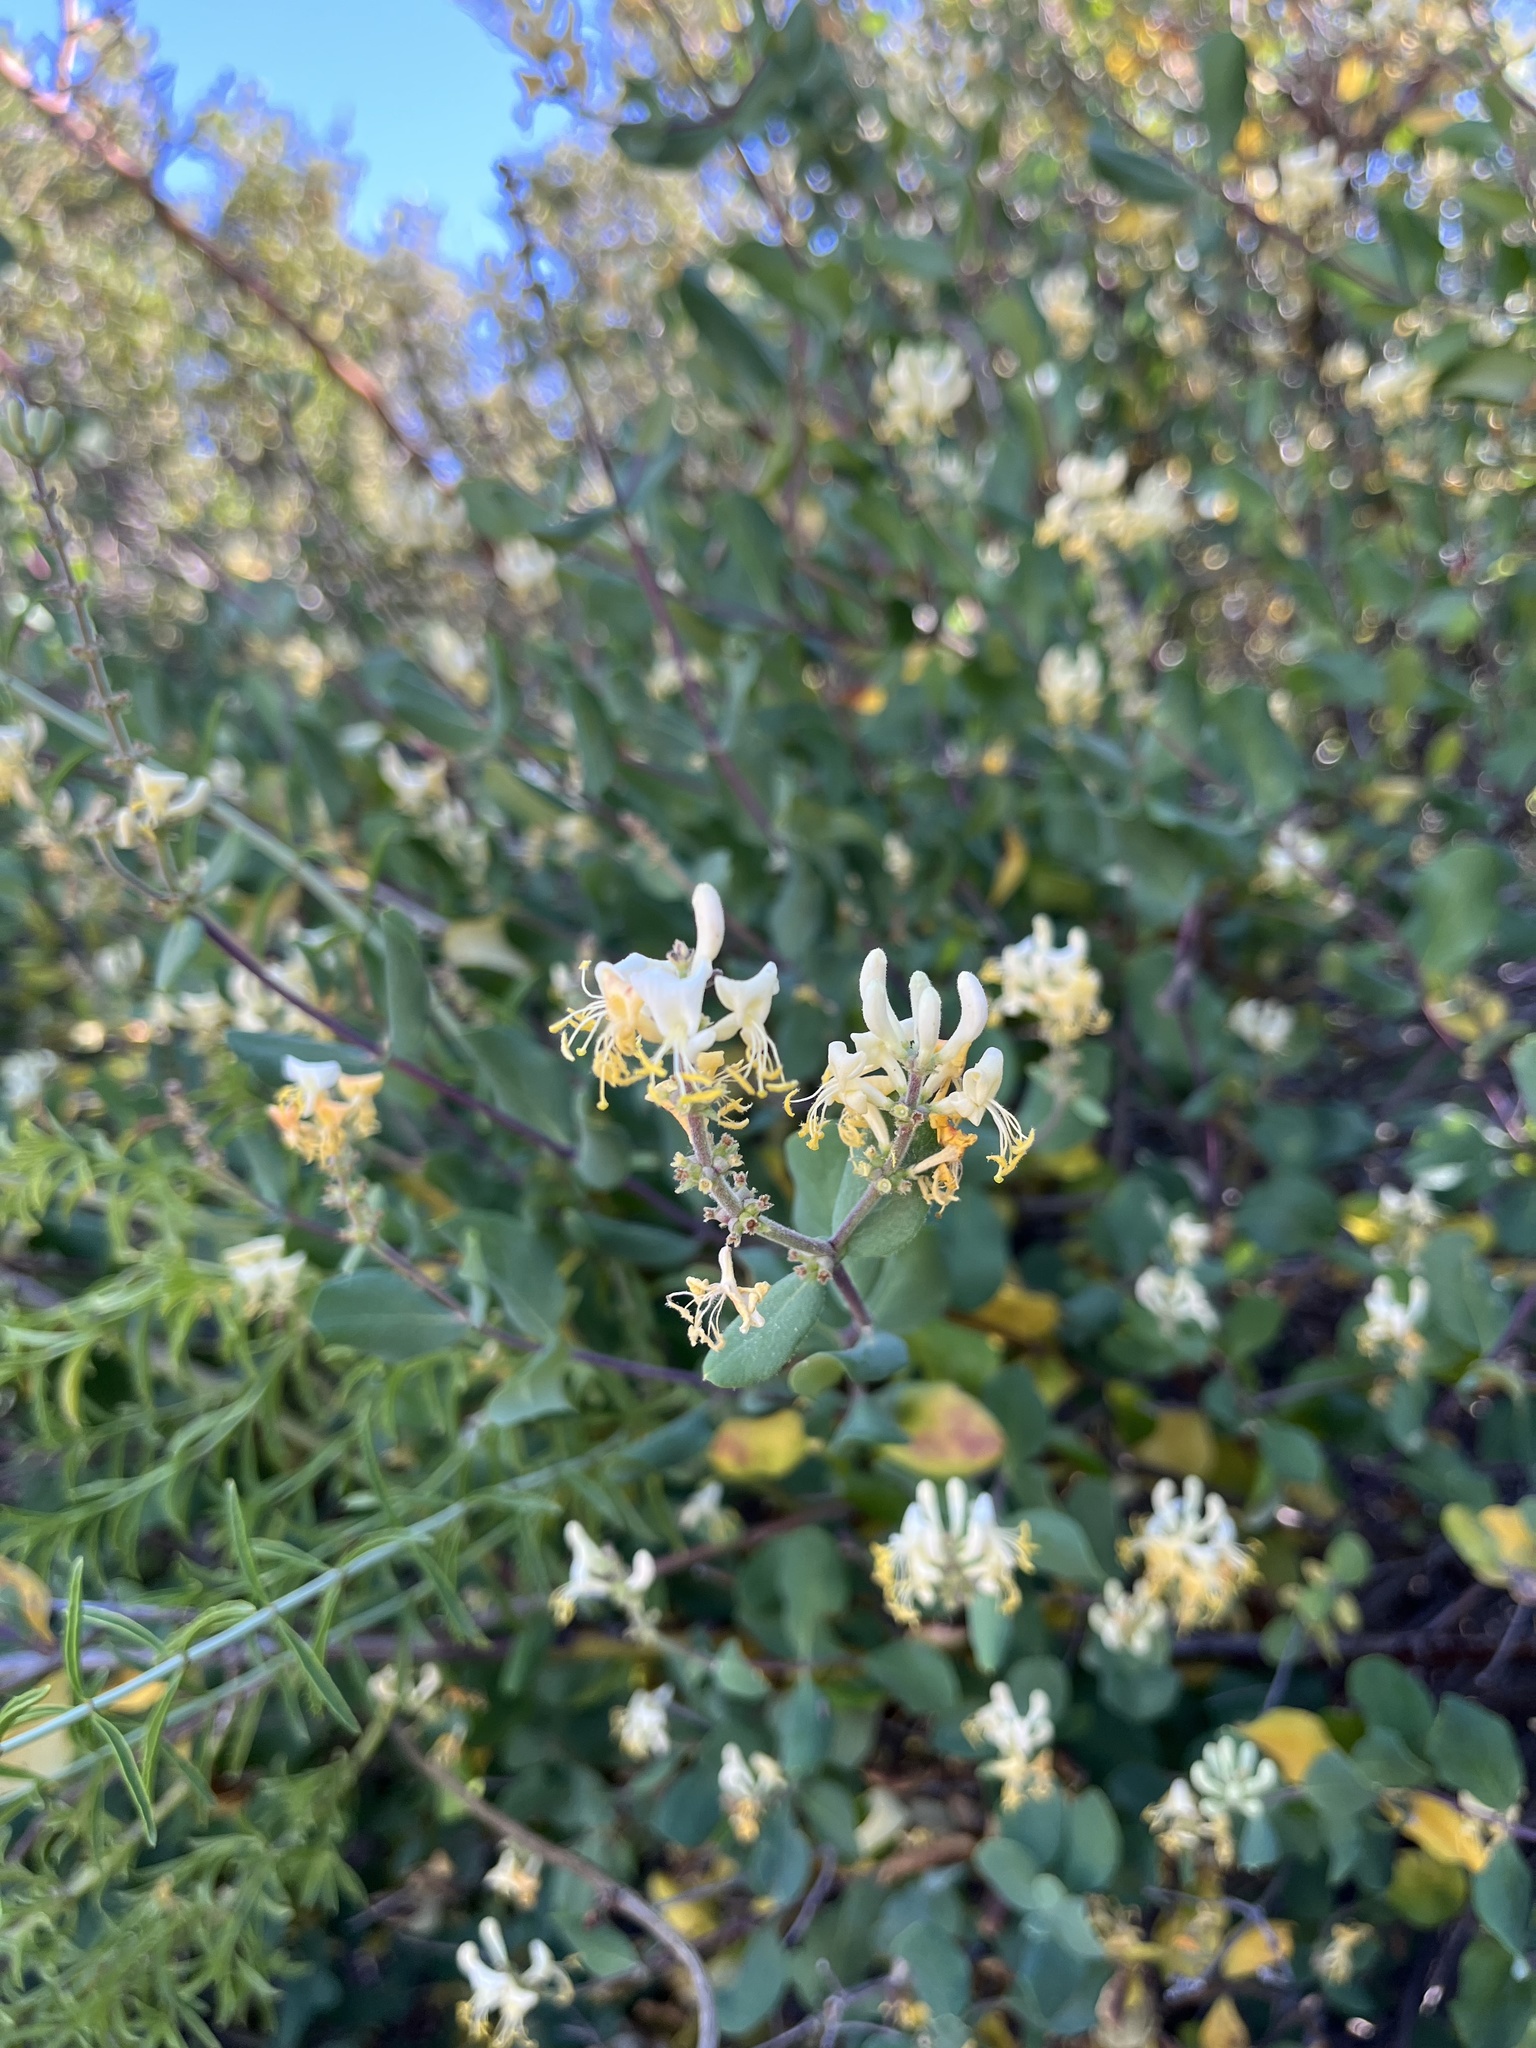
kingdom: Plantae
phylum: Tracheophyta
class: Magnoliopsida
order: Dipsacales
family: Caprifoliaceae
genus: Lonicera
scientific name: Lonicera subspicata
